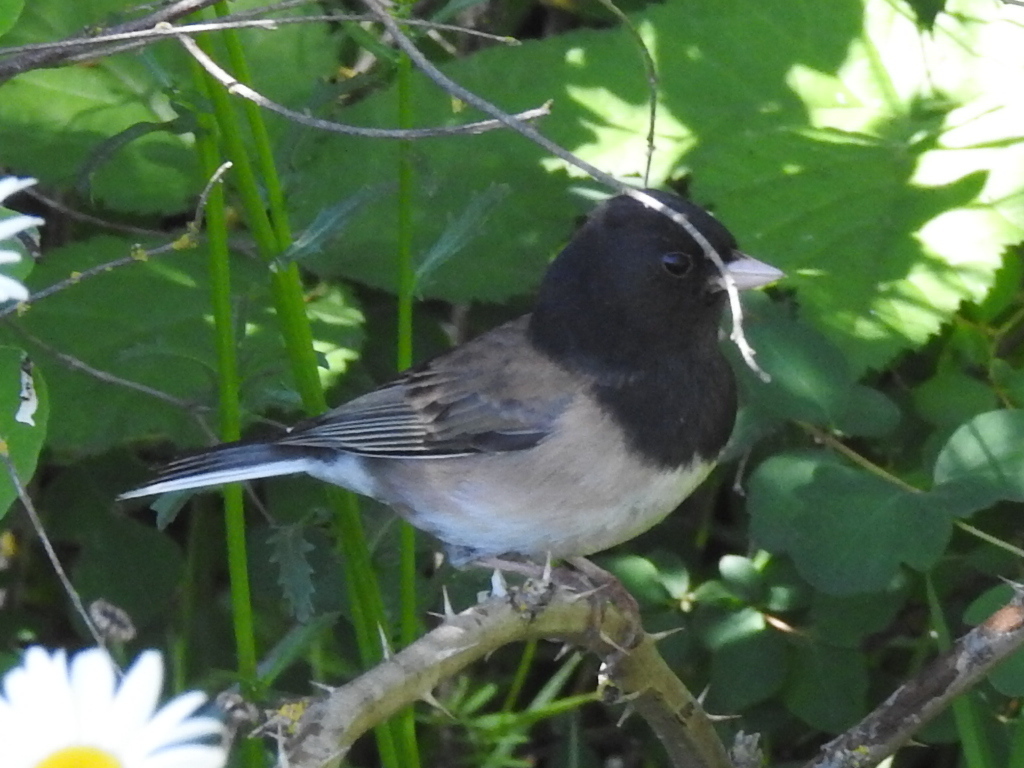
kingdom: Animalia
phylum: Chordata
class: Aves
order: Passeriformes
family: Passerellidae
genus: Junco
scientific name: Junco hyemalis
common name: Dark-eyed junco
